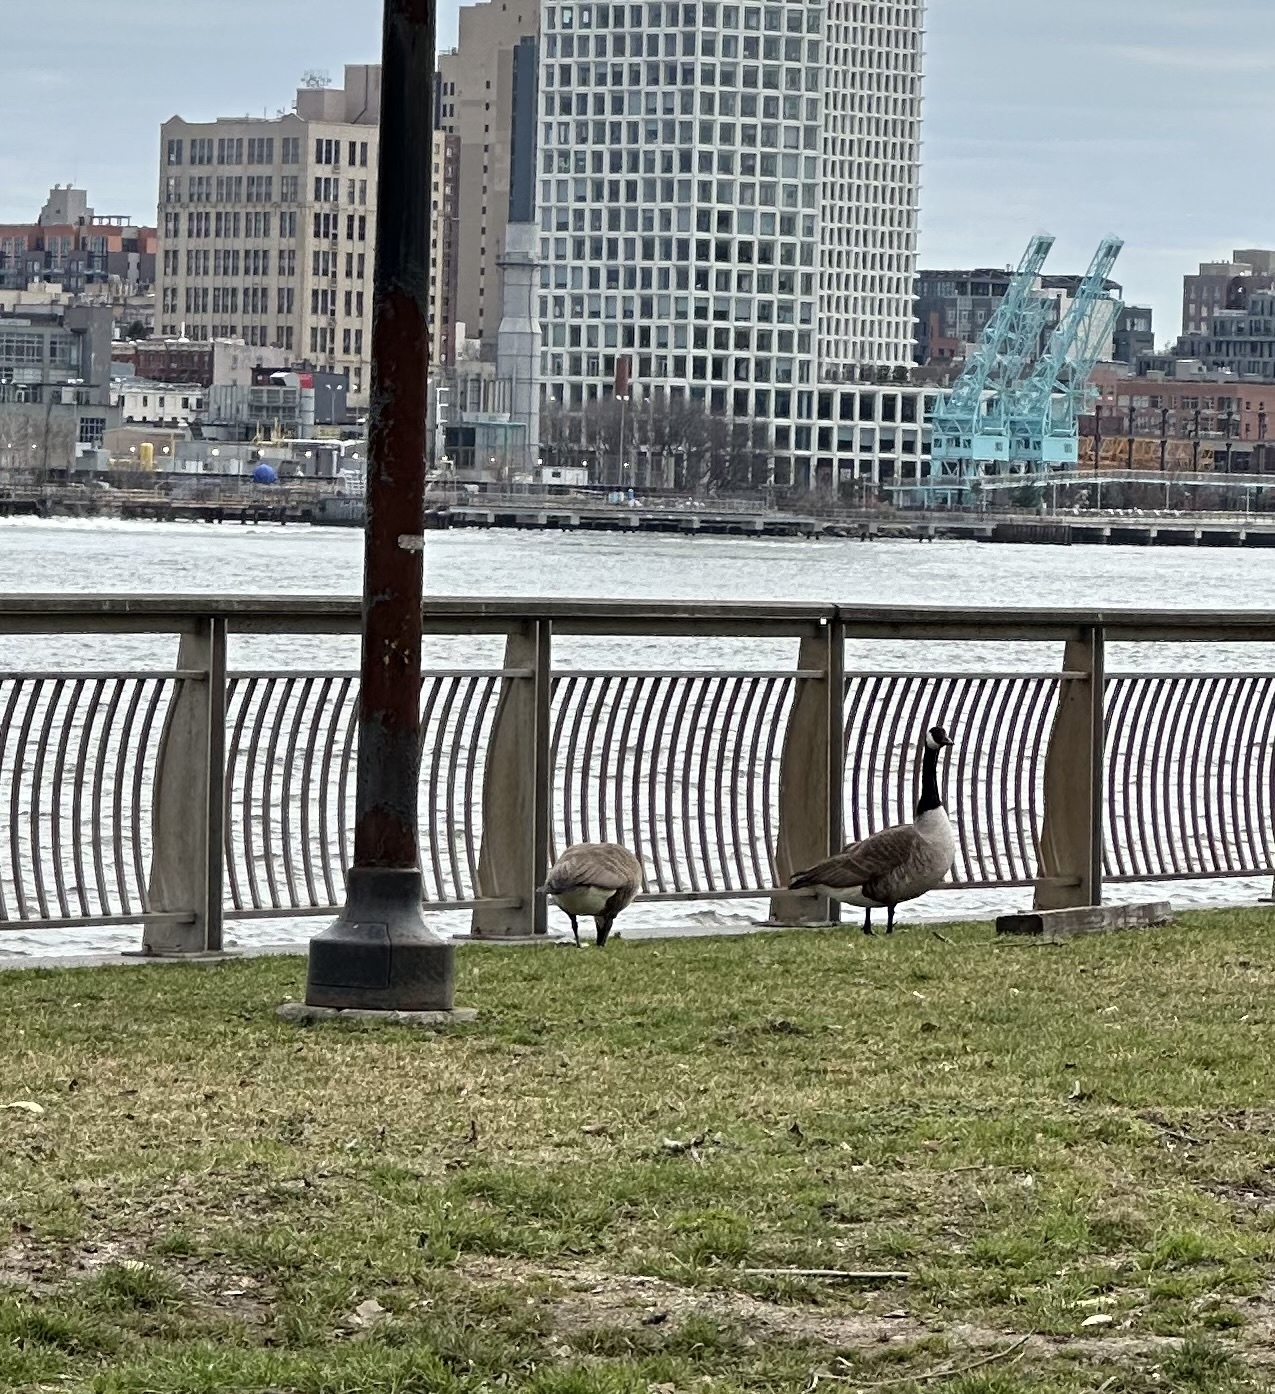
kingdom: Animalia
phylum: Chordata
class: Aves
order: Anseriformes
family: Anatidae
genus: Branta
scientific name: Branta canadensis
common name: Canada goose
